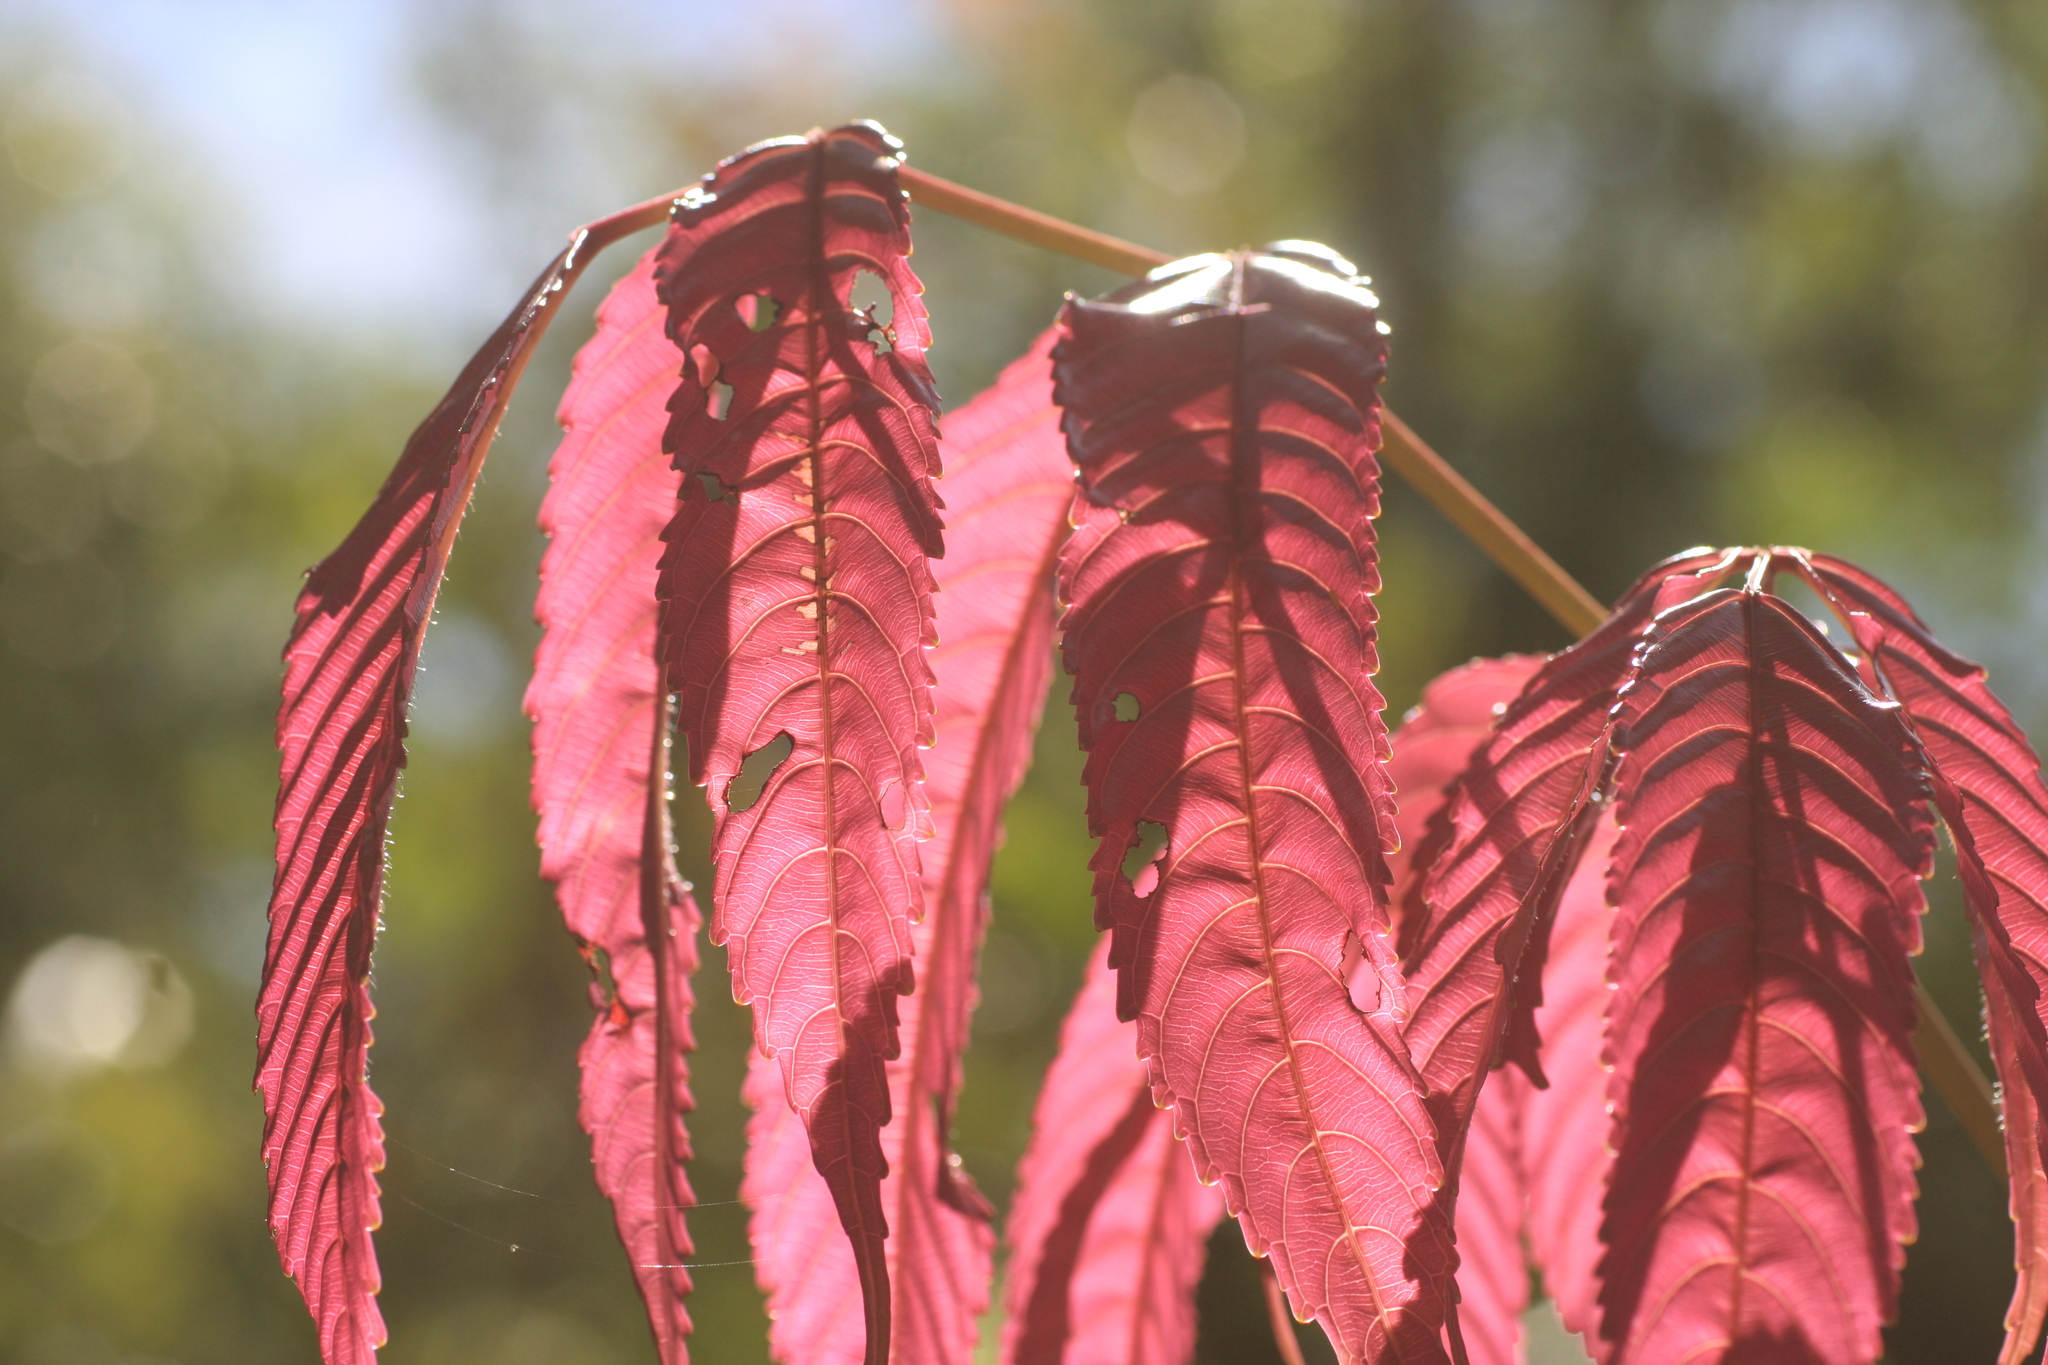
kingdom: Plantae
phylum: Tracheophyta
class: Magnoliopsida
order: Vitales
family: Vitaceae
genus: Leea
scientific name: Leea indica
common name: Bandicoot-berry
